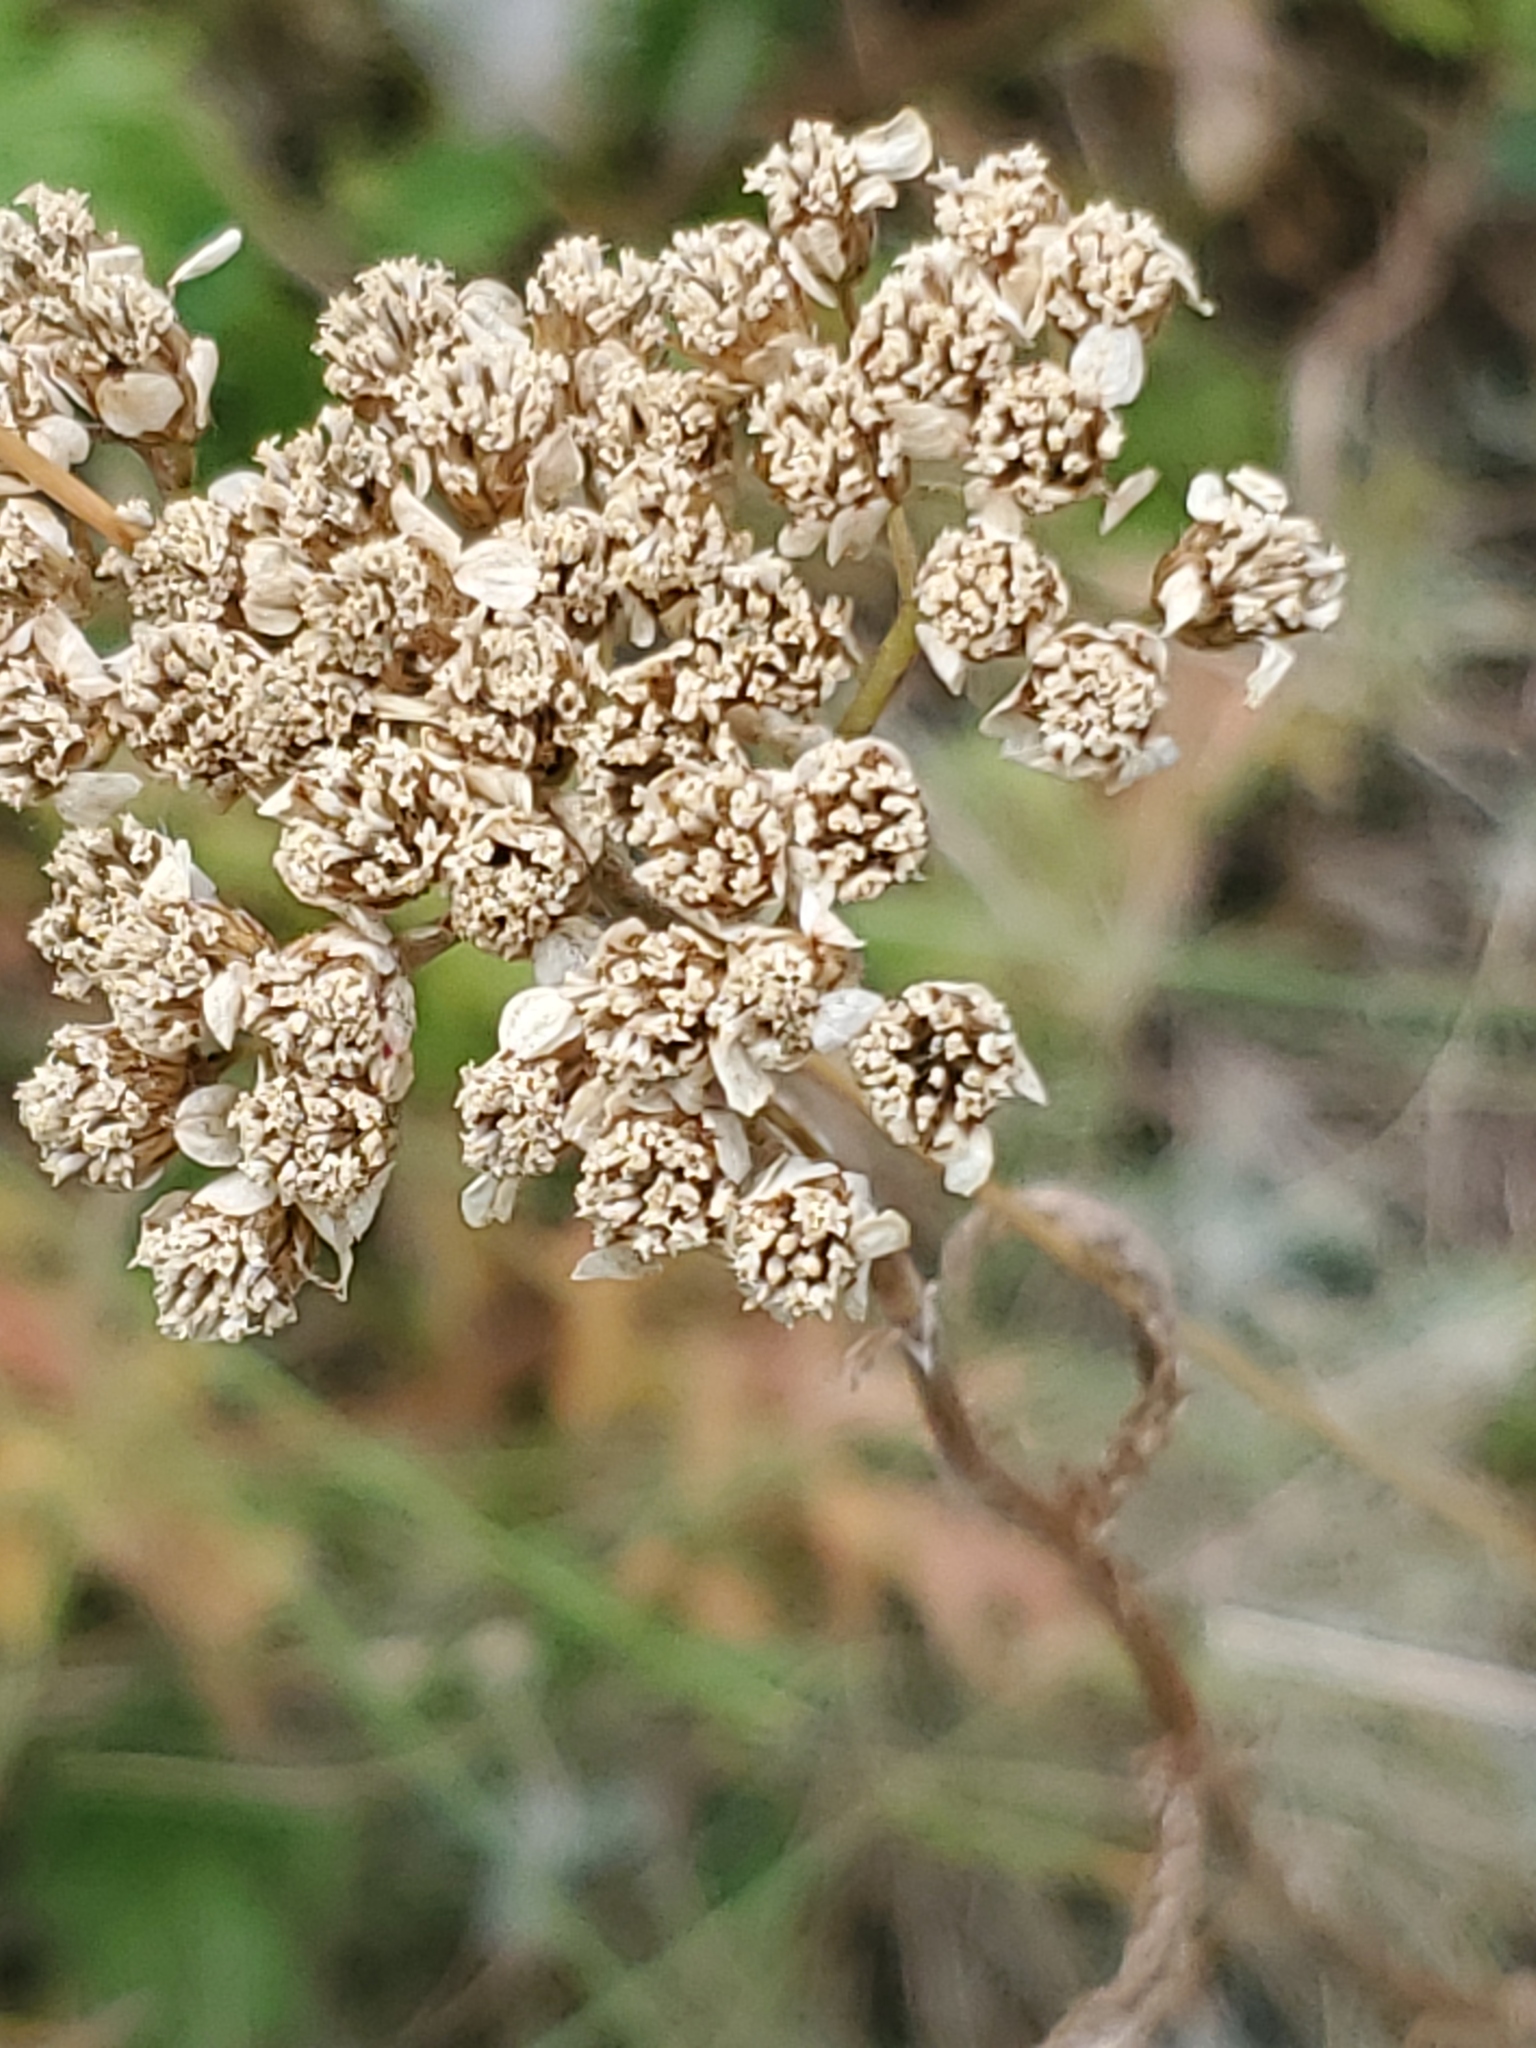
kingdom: Plantae
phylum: Tracheophyta
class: Magnoliopsida
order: Asterales
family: Asteraceae
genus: Achillea
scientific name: Achillea millefolium
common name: Yarrow
